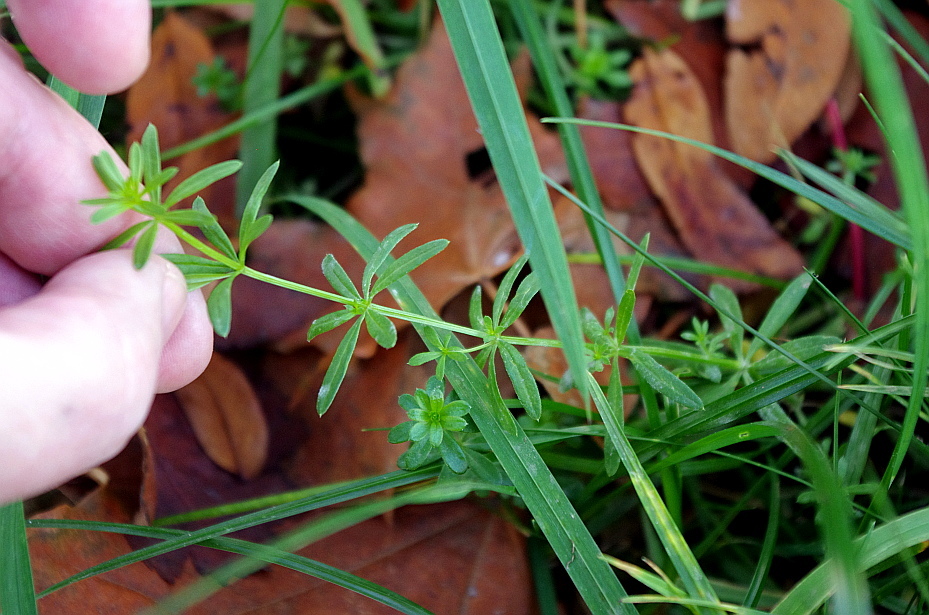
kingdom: Plantae
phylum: Tracheophyta
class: Magnoliopsida
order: Gentianales
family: Rubiaceae
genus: Galium
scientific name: Galium mollugo
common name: Hedge bedstraw
